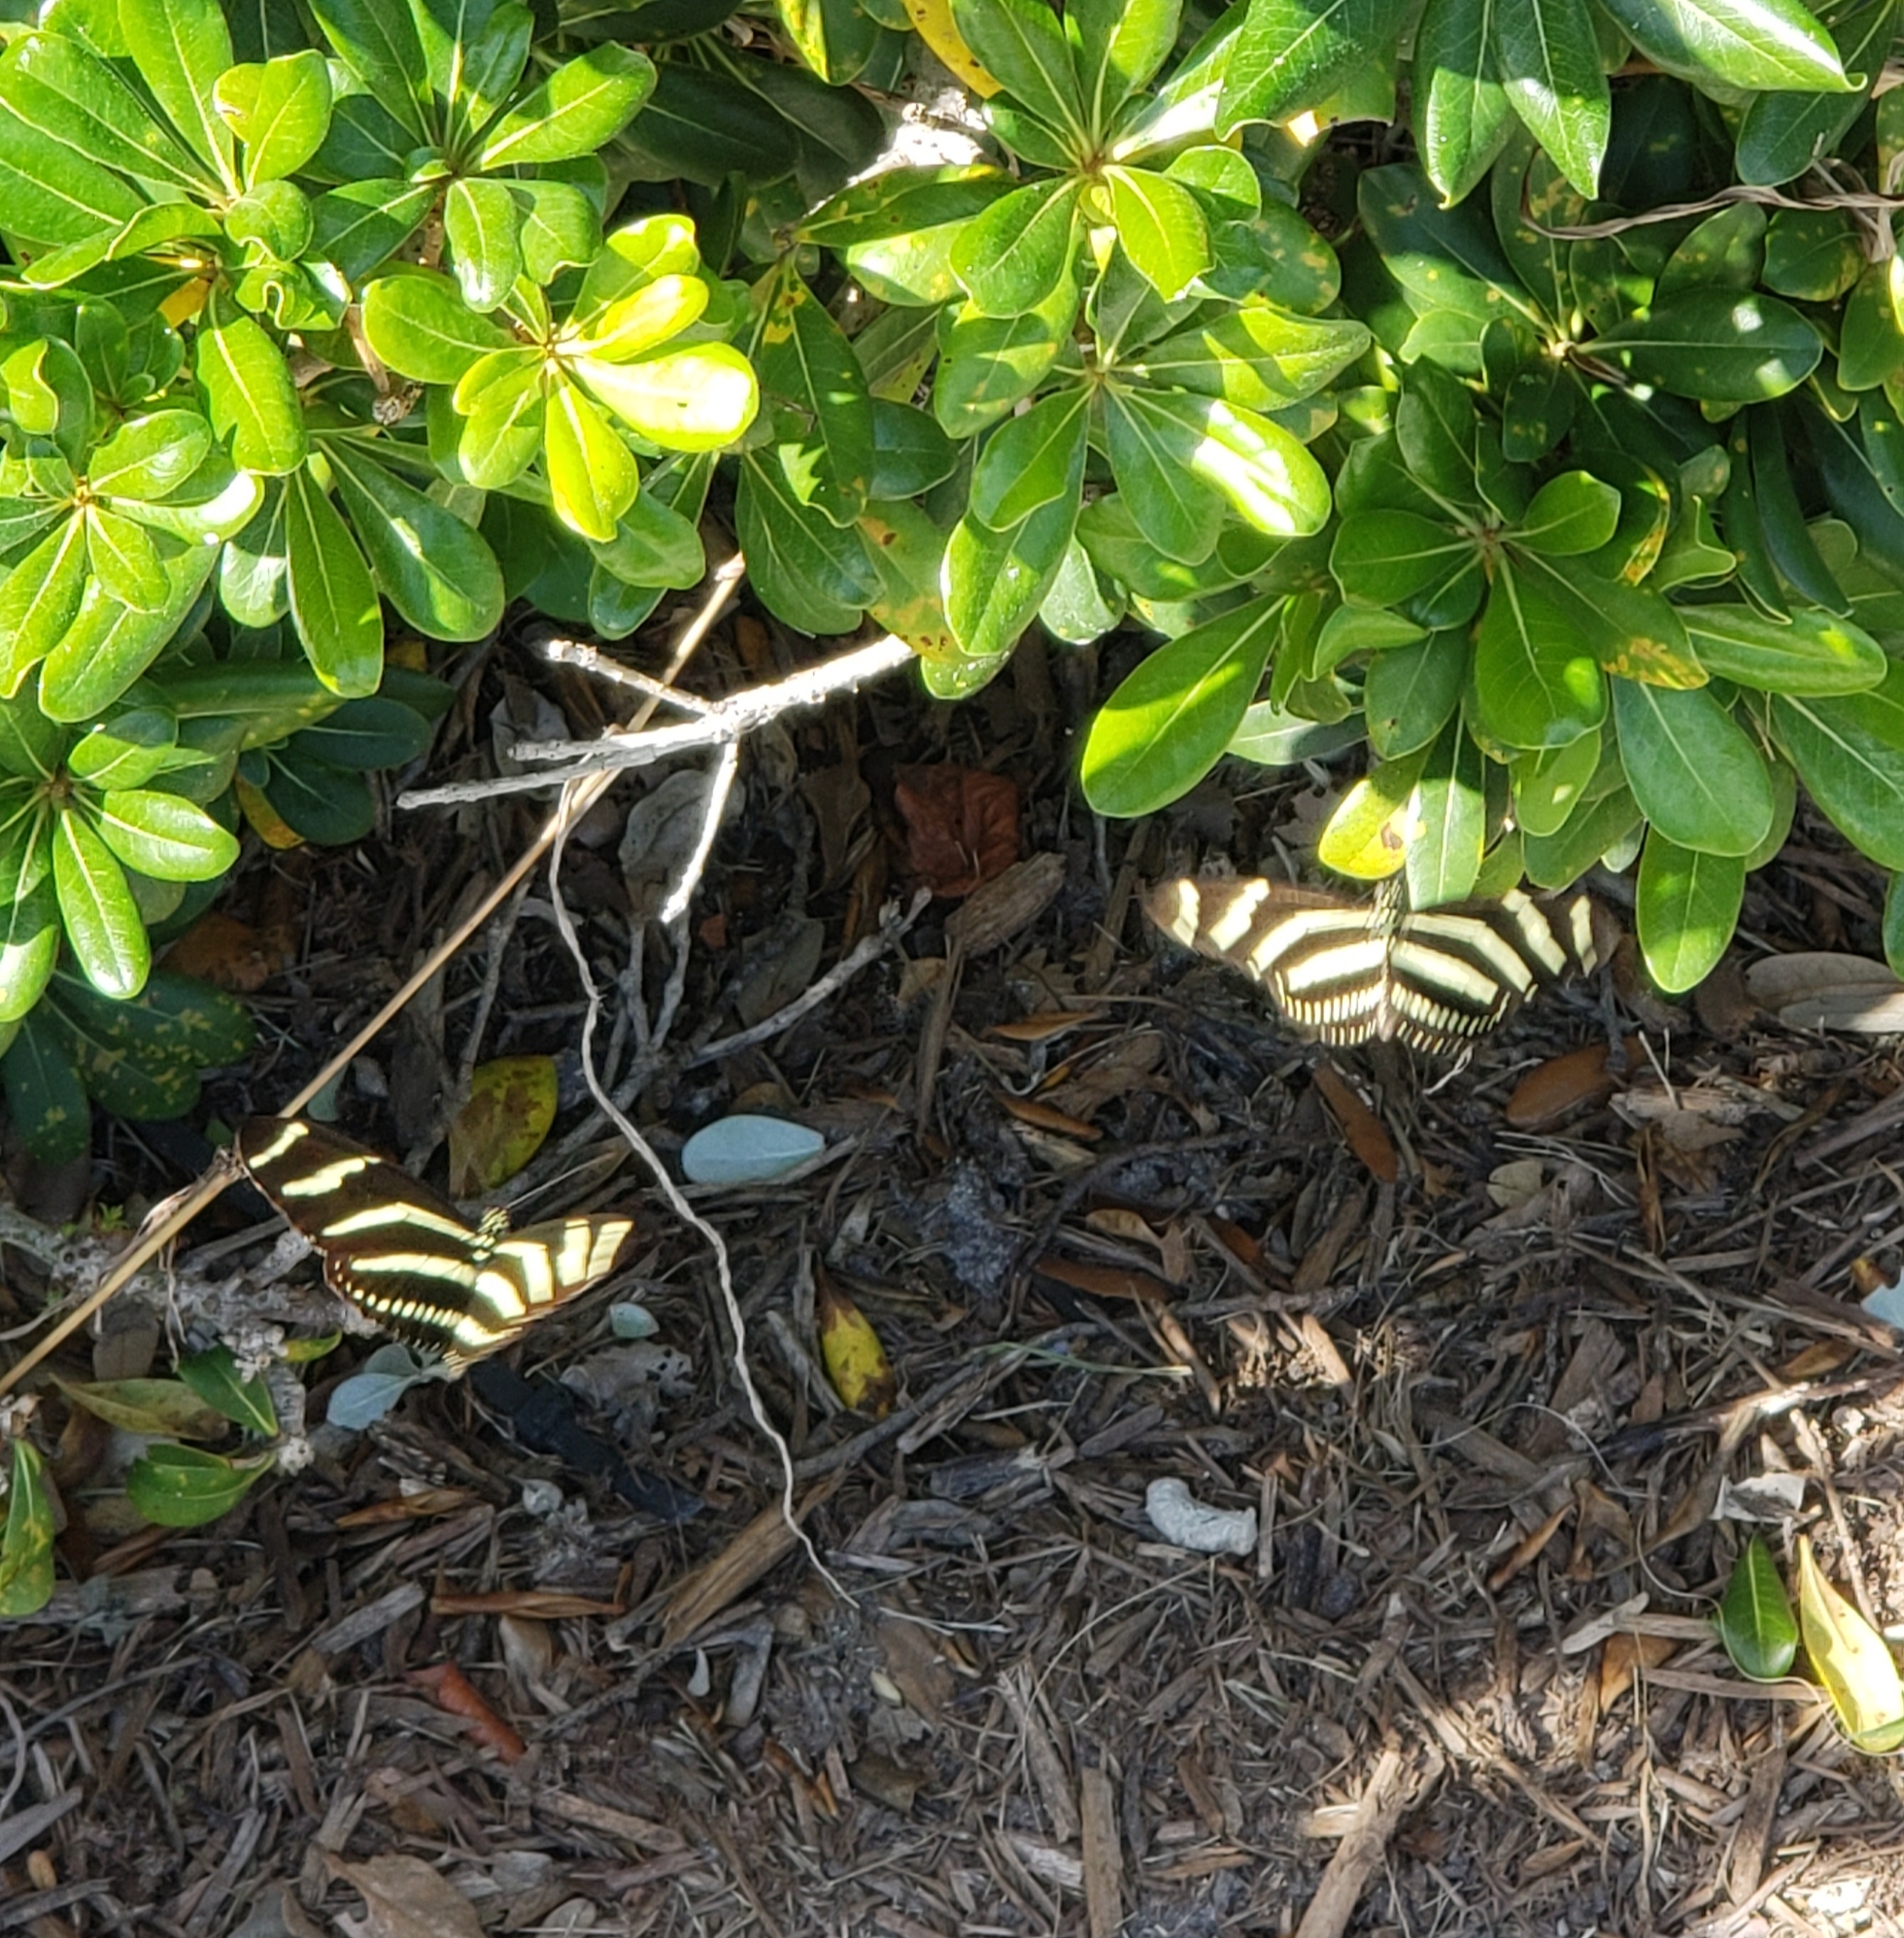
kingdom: Animalia
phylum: Arthropoda
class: Insecta
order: Lepidoptera
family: Nymphalidae
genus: Heliconius
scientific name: Heliconius charithonia
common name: Zebra long wing
